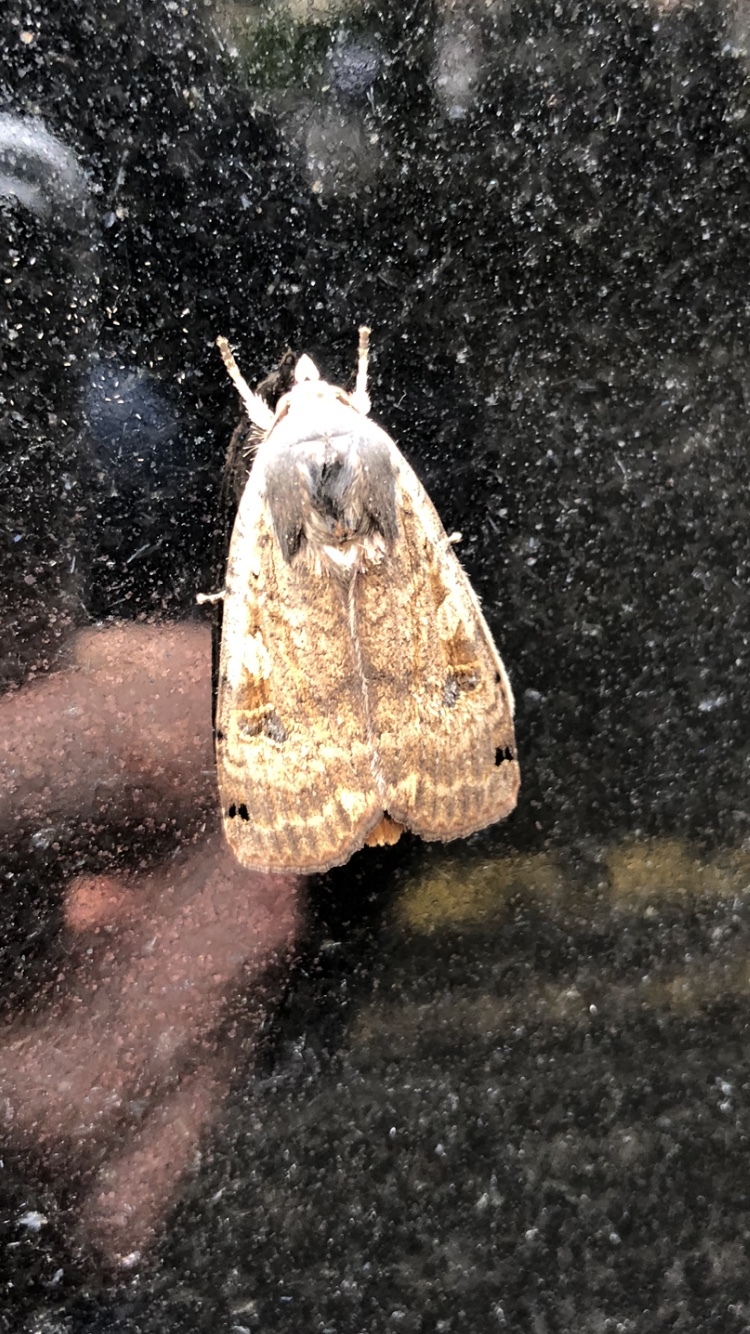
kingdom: Animalia
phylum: Arthropoda
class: Insecta
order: Lepidoptera
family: Noctuidae
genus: Noctua
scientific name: Noctua pronuba
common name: Large yellow underwing
